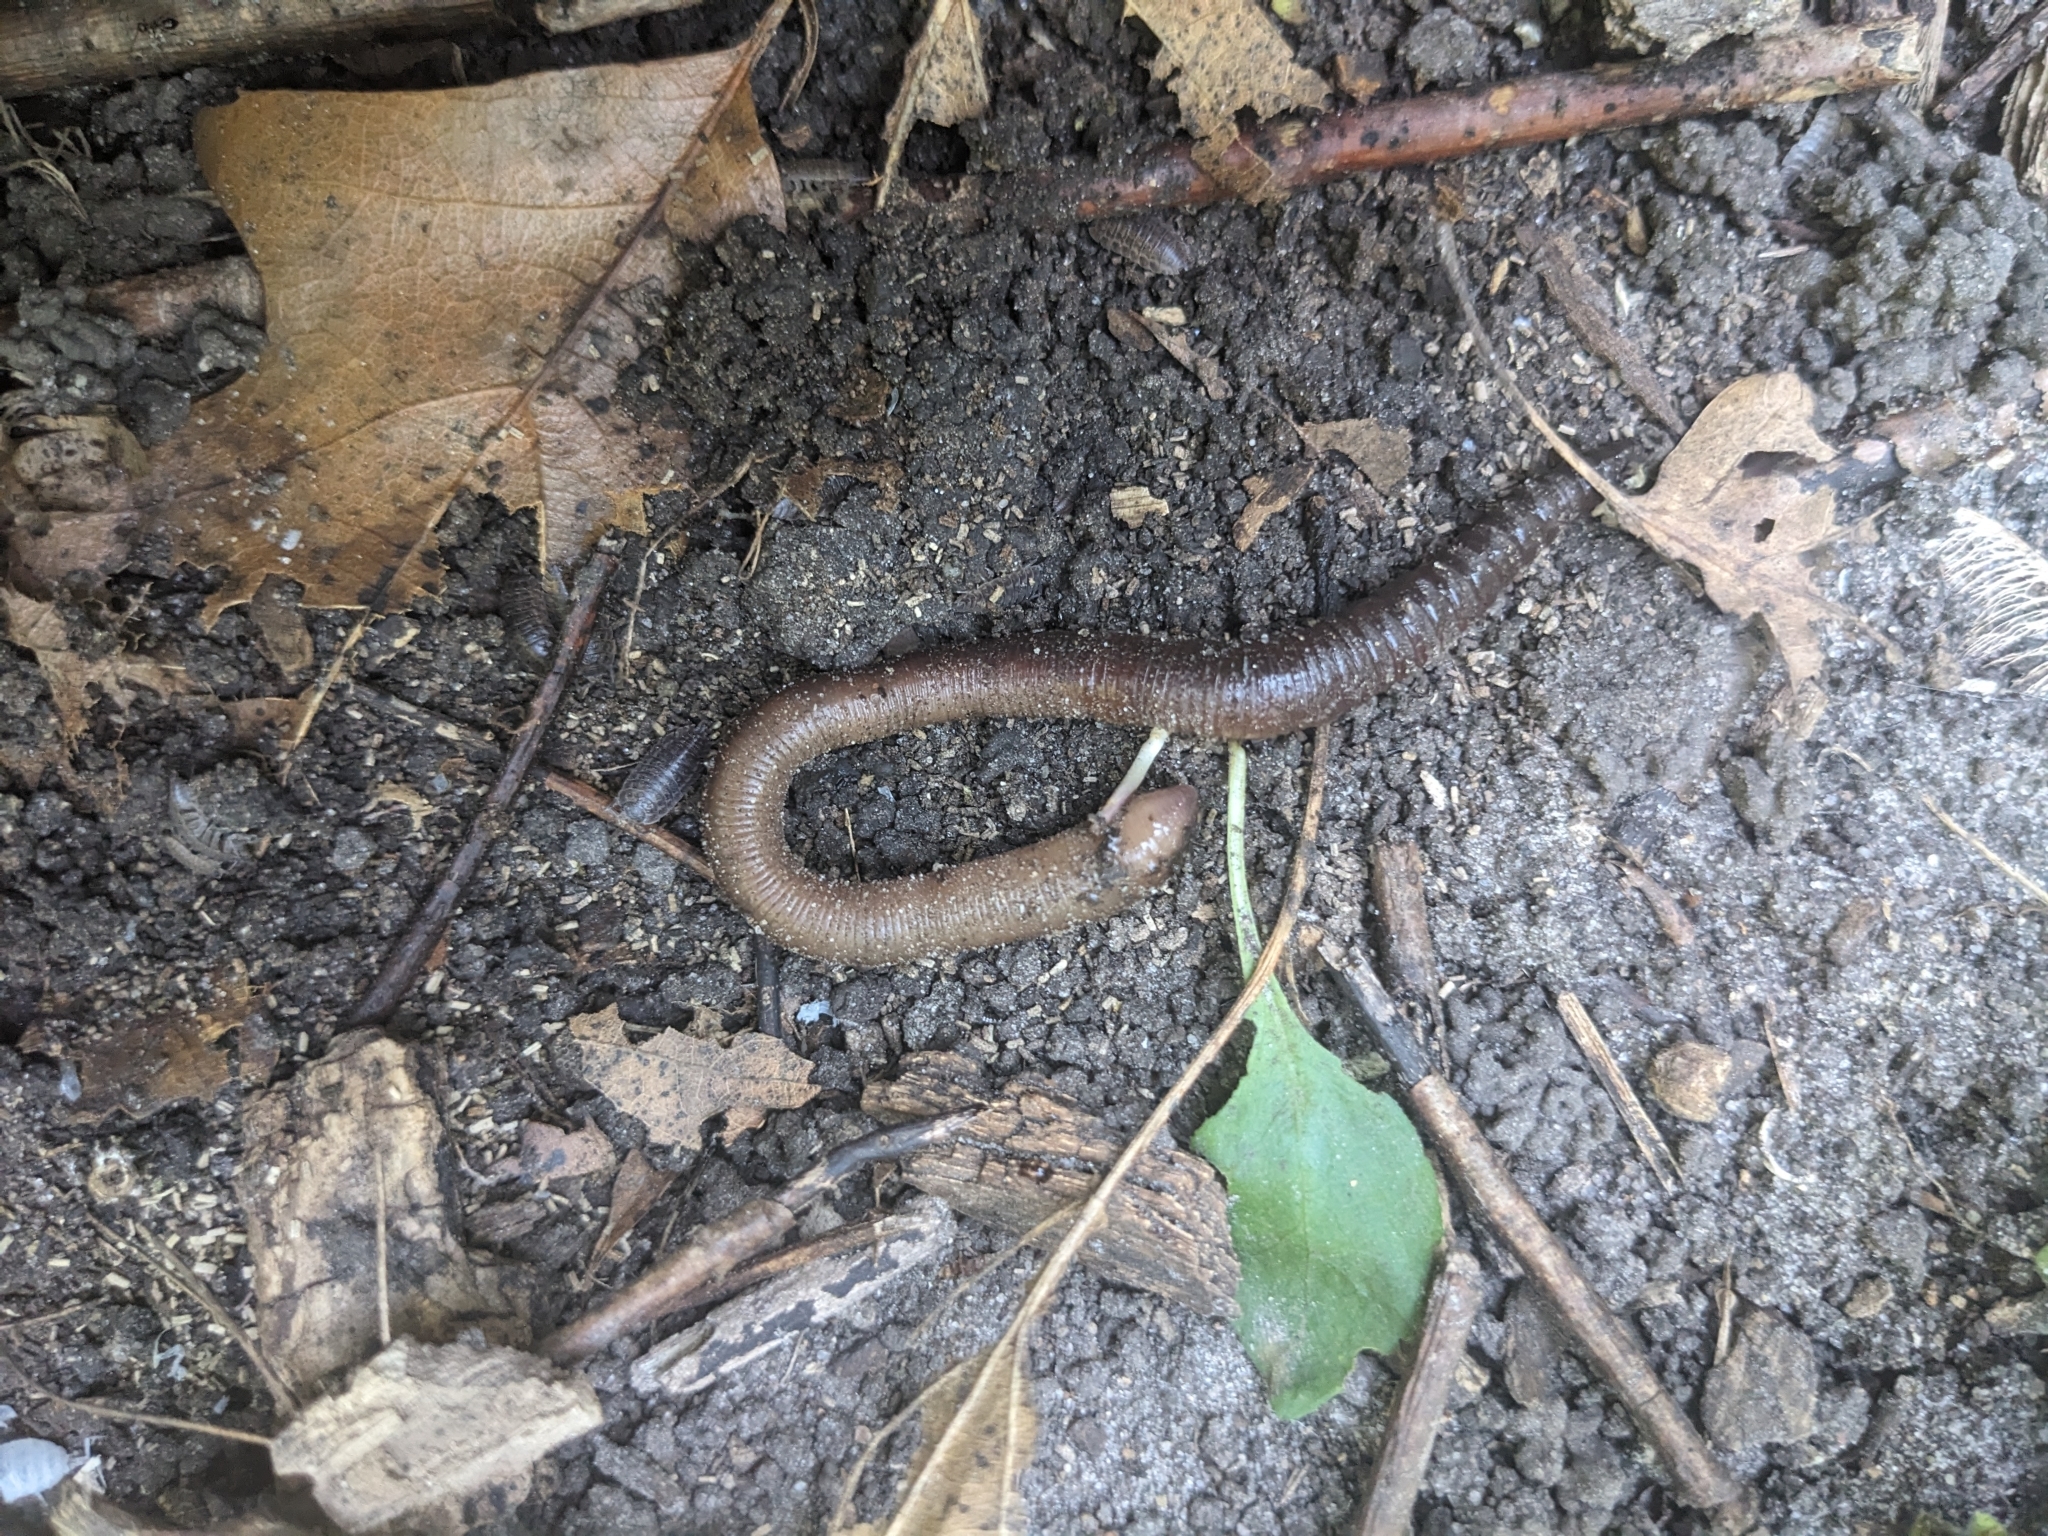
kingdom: Animalia
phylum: Annelida
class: Clitellata
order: Crassiclitellata
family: Lumbricidae
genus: Lumbricus
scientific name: Lumbricus terrestris
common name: Common earthworm
